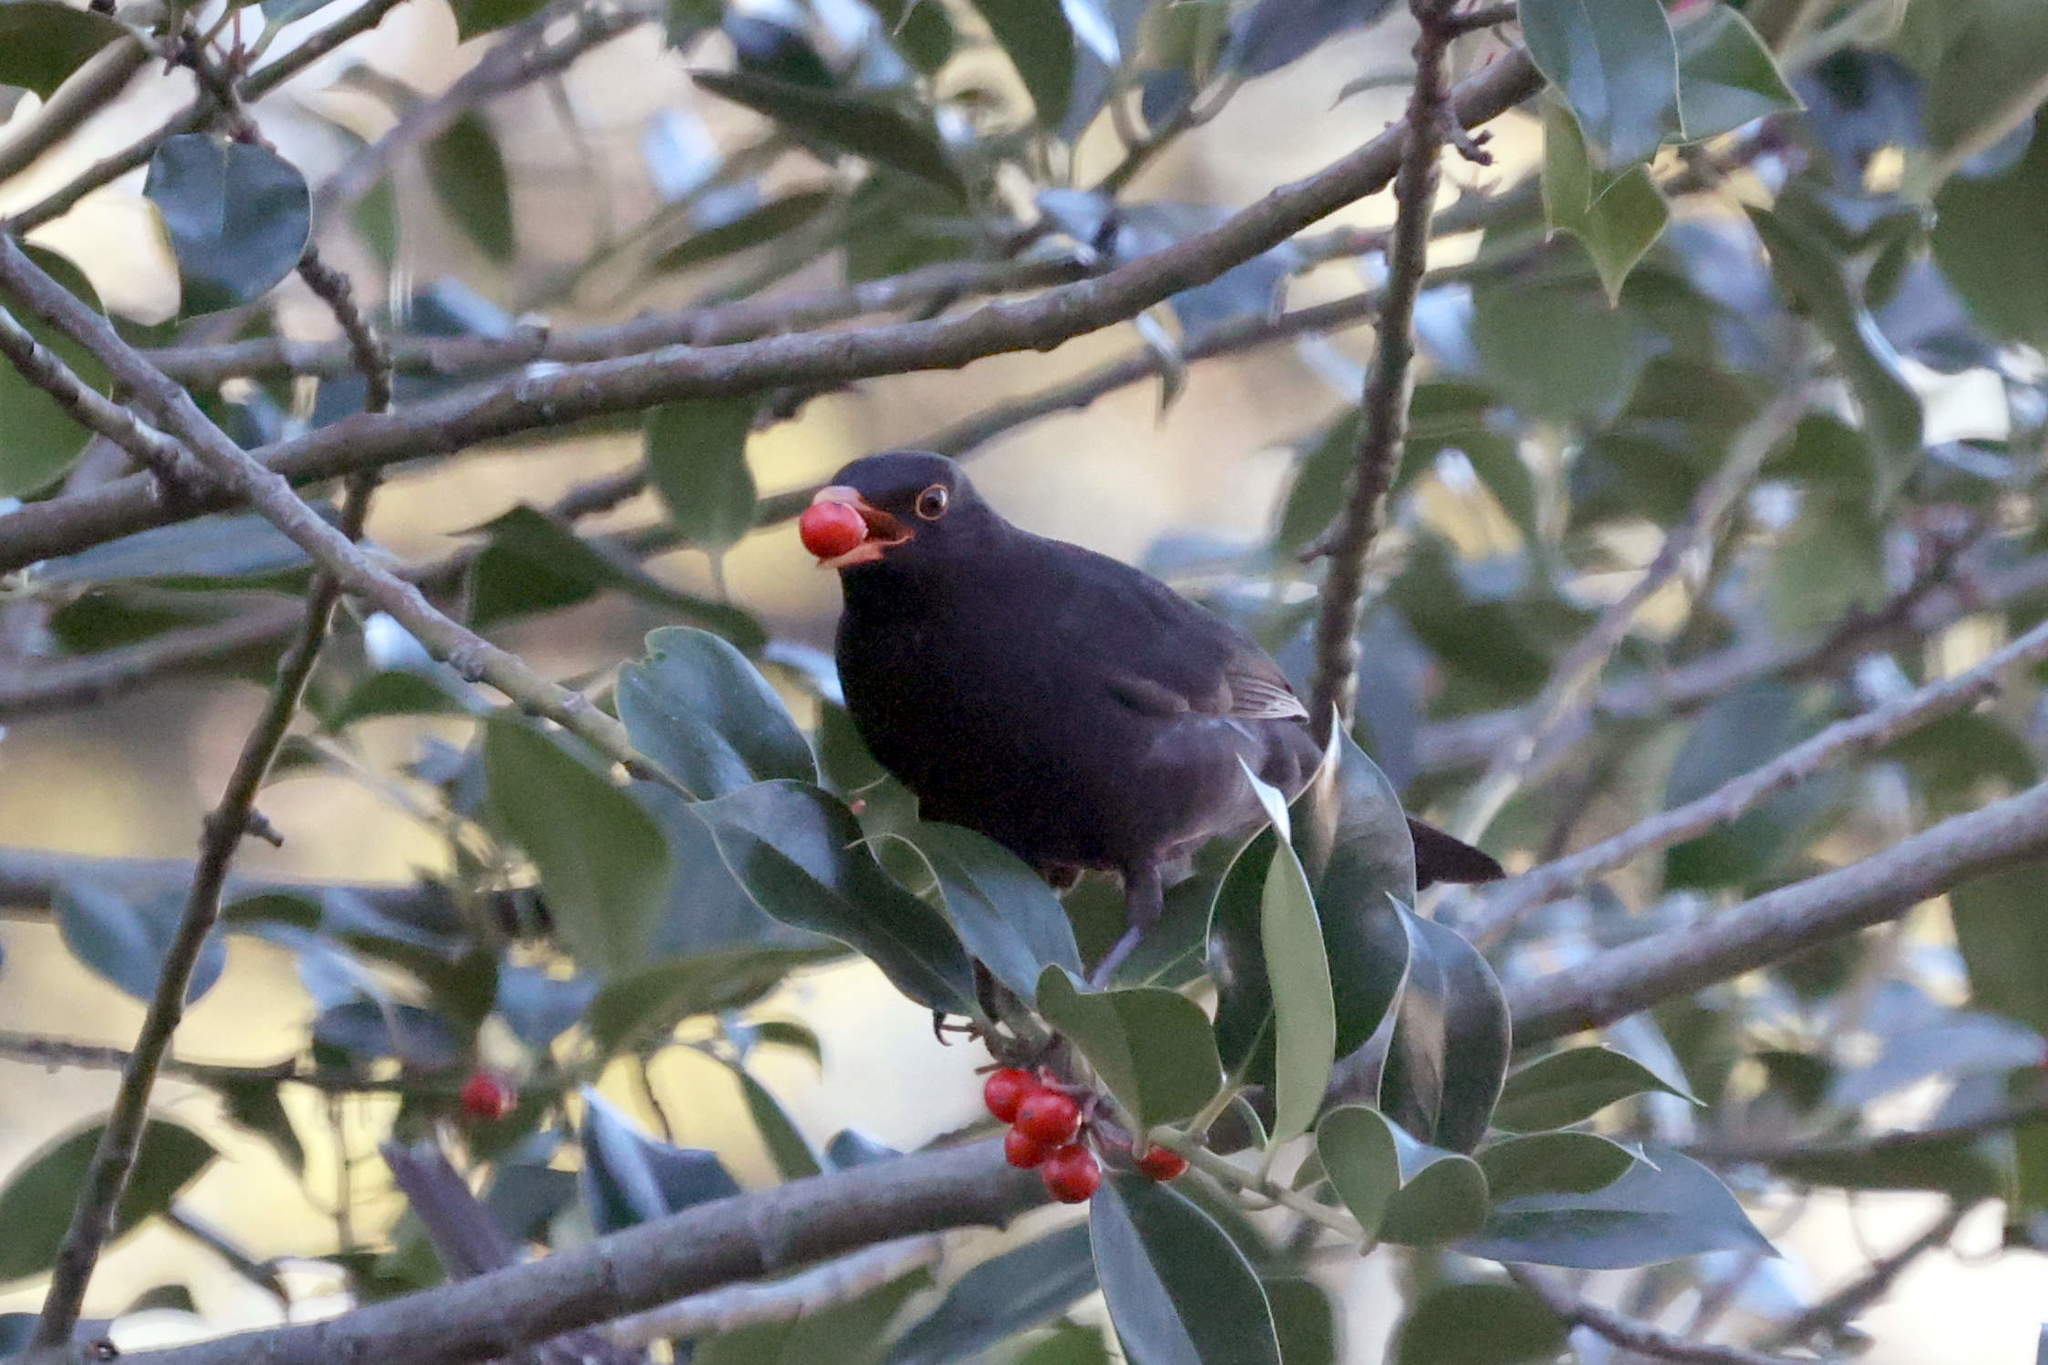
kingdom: Animalia
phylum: Chordata
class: Aves
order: Passeriformes
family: Turdidae
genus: Turdus
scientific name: Turdus merula
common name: Common blackbird
